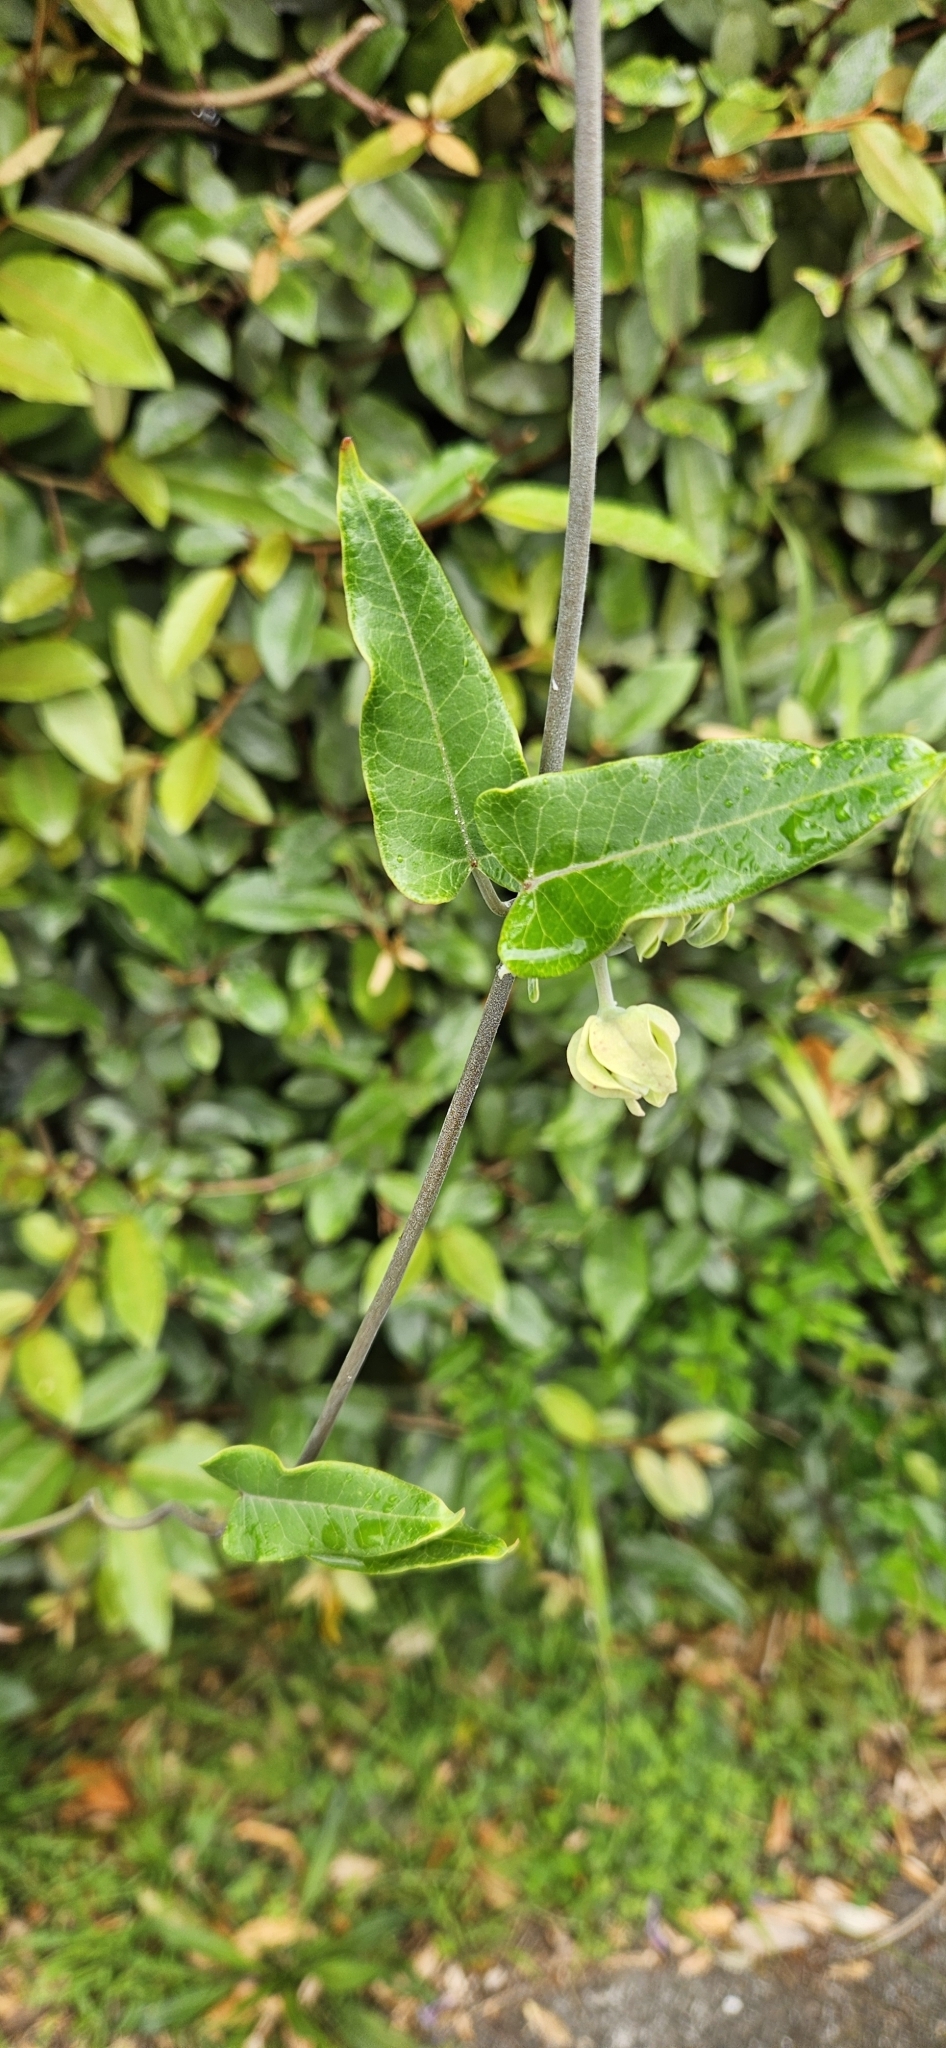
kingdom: Plantae
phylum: Tracheophyta
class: Magnoliopsida
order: Gentianales
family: Apocynaceae
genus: Araujia
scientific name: Araujia sericifera
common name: White bladderflower
